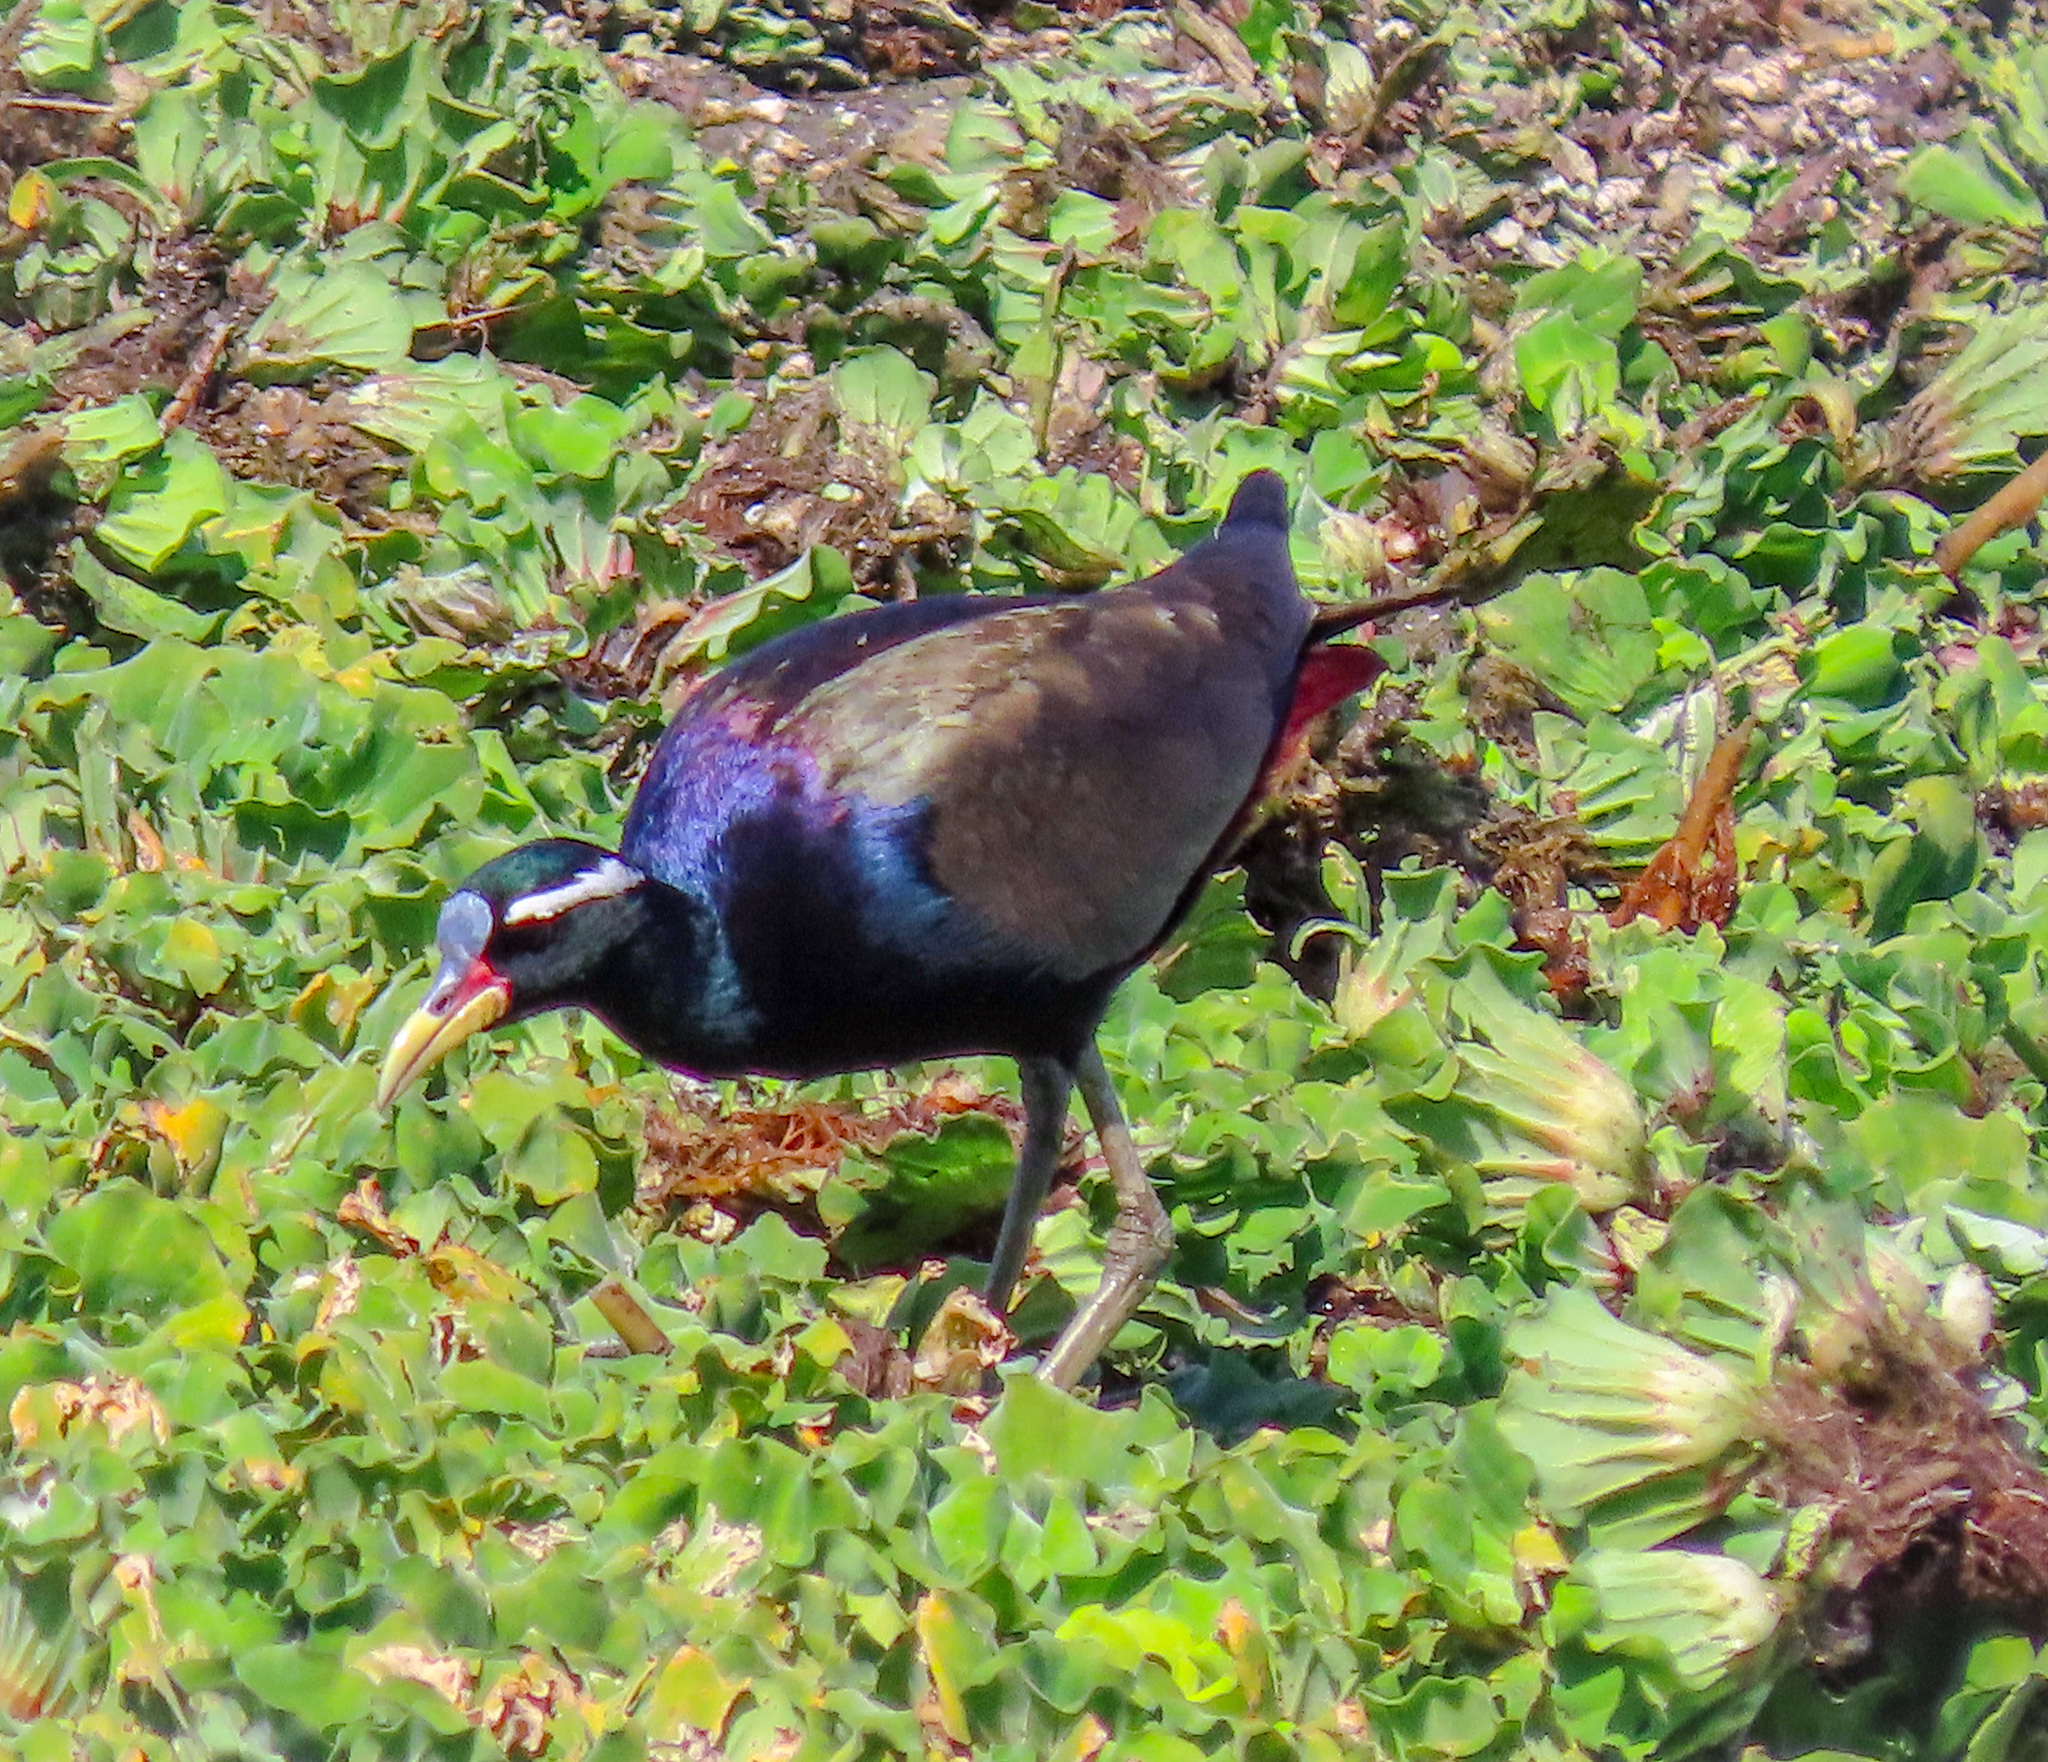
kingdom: Animalia
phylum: Chordata
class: Aves
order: Charadriiformes
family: Jacanidae
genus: Metopidius
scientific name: Metopidius indicus
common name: Bronze-winged jacana
